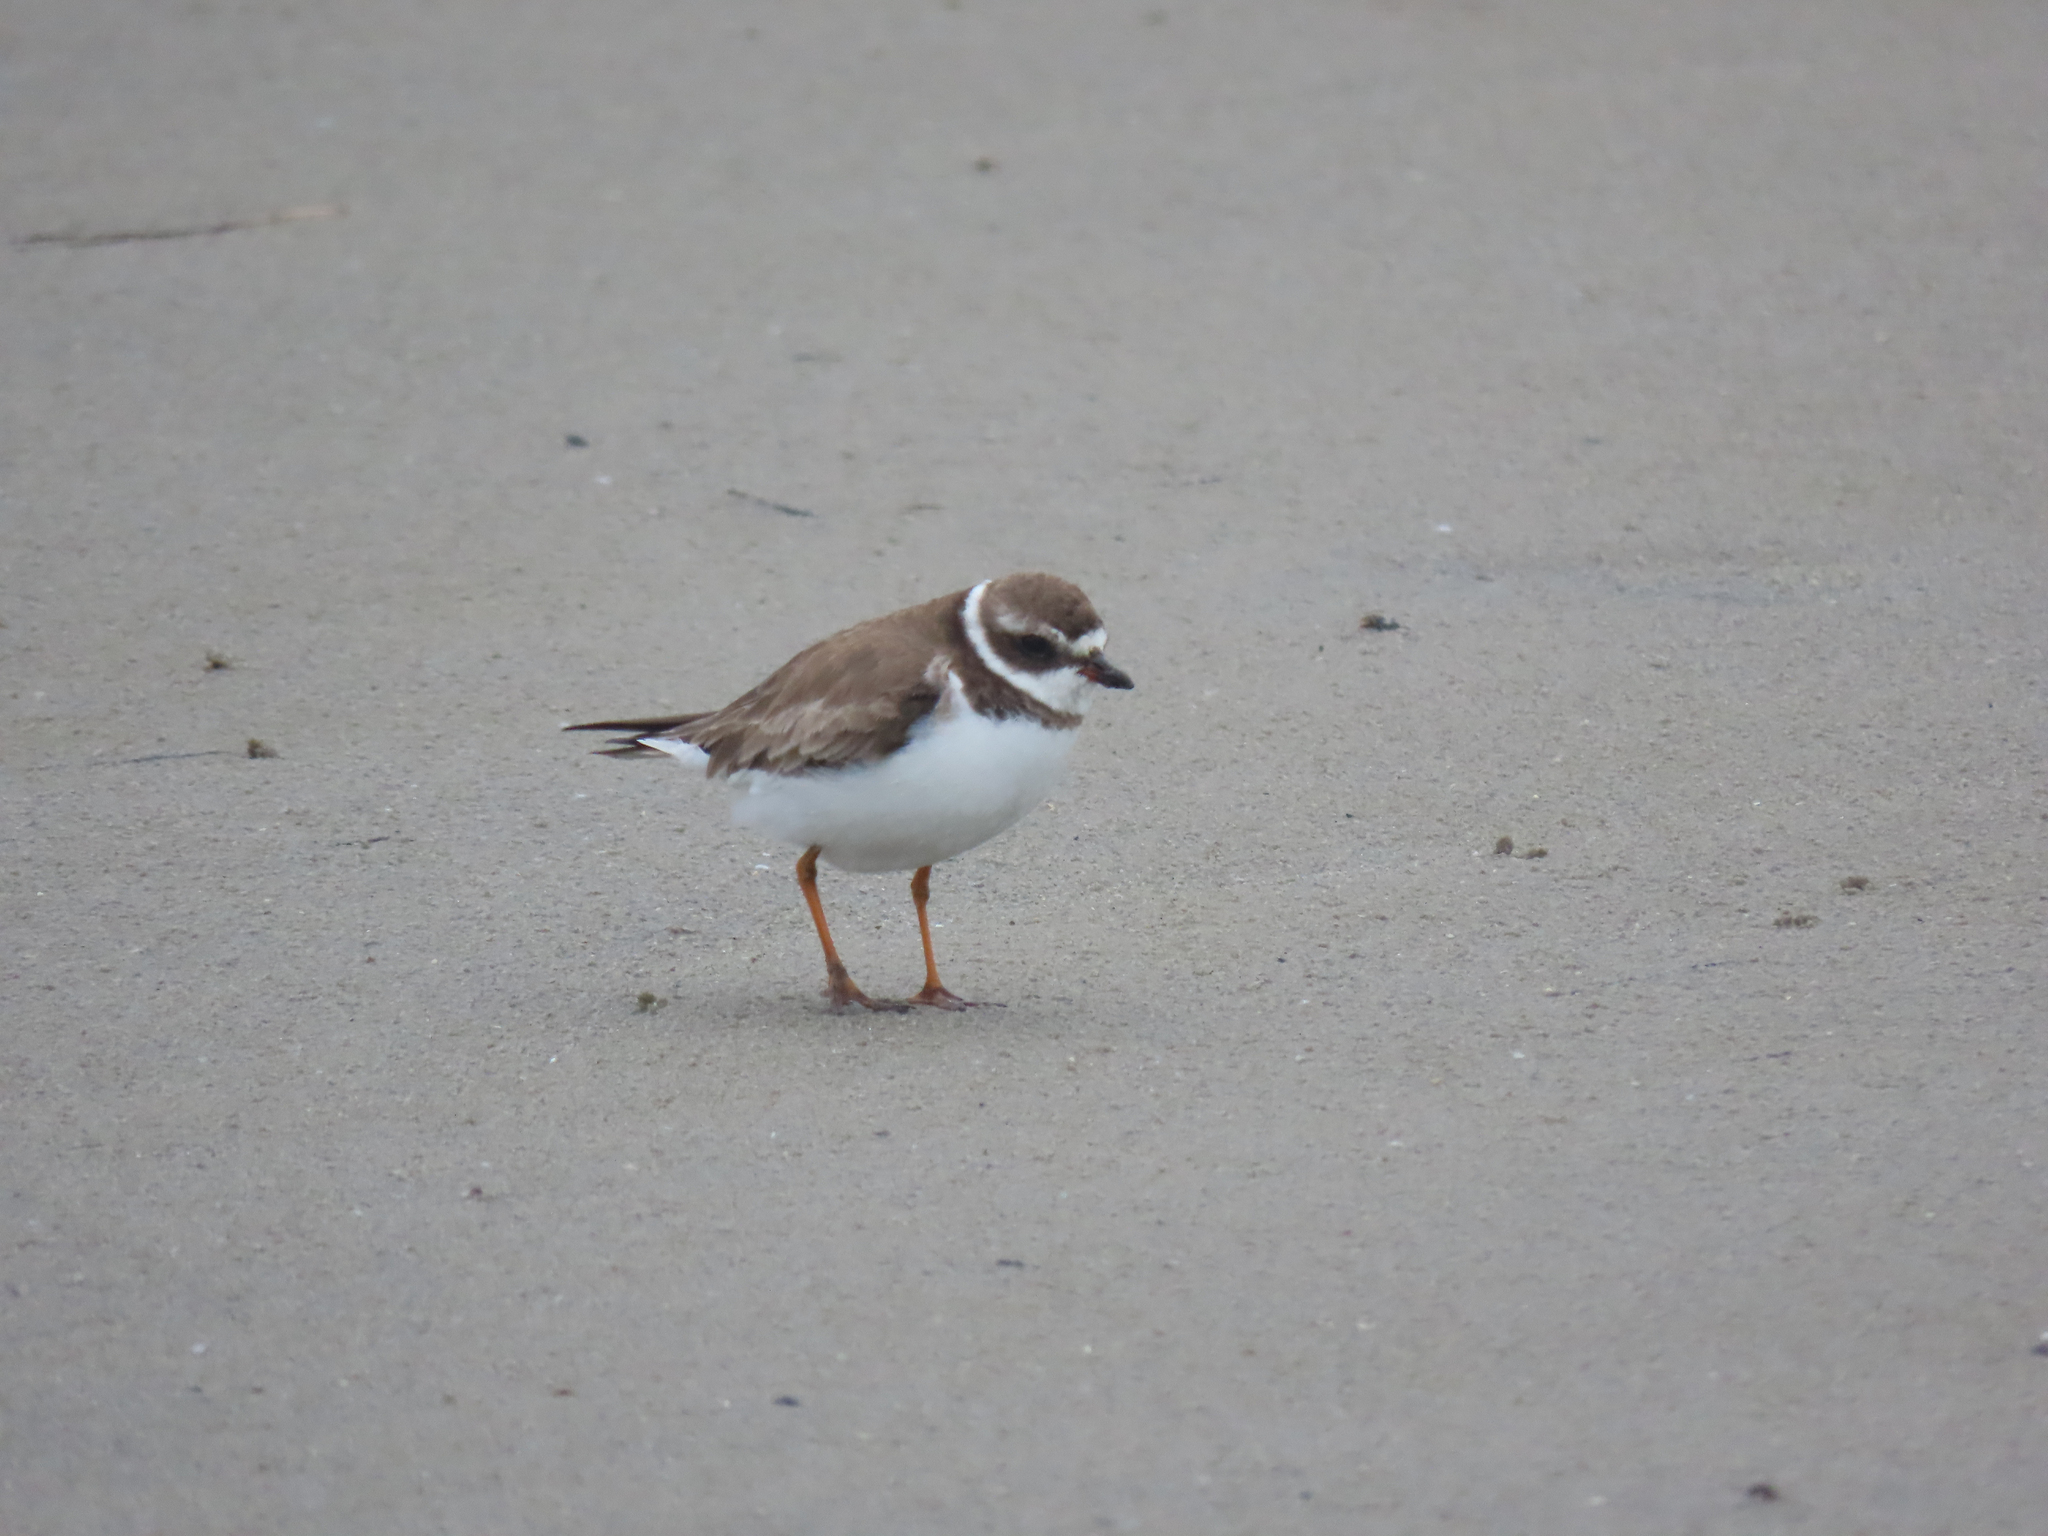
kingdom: Animalia
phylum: Chordata
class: Aves
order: Charadriiformes
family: Charadriidae
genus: Charadrius
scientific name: Charadrius semipalmatus
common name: Semipalmated plover
